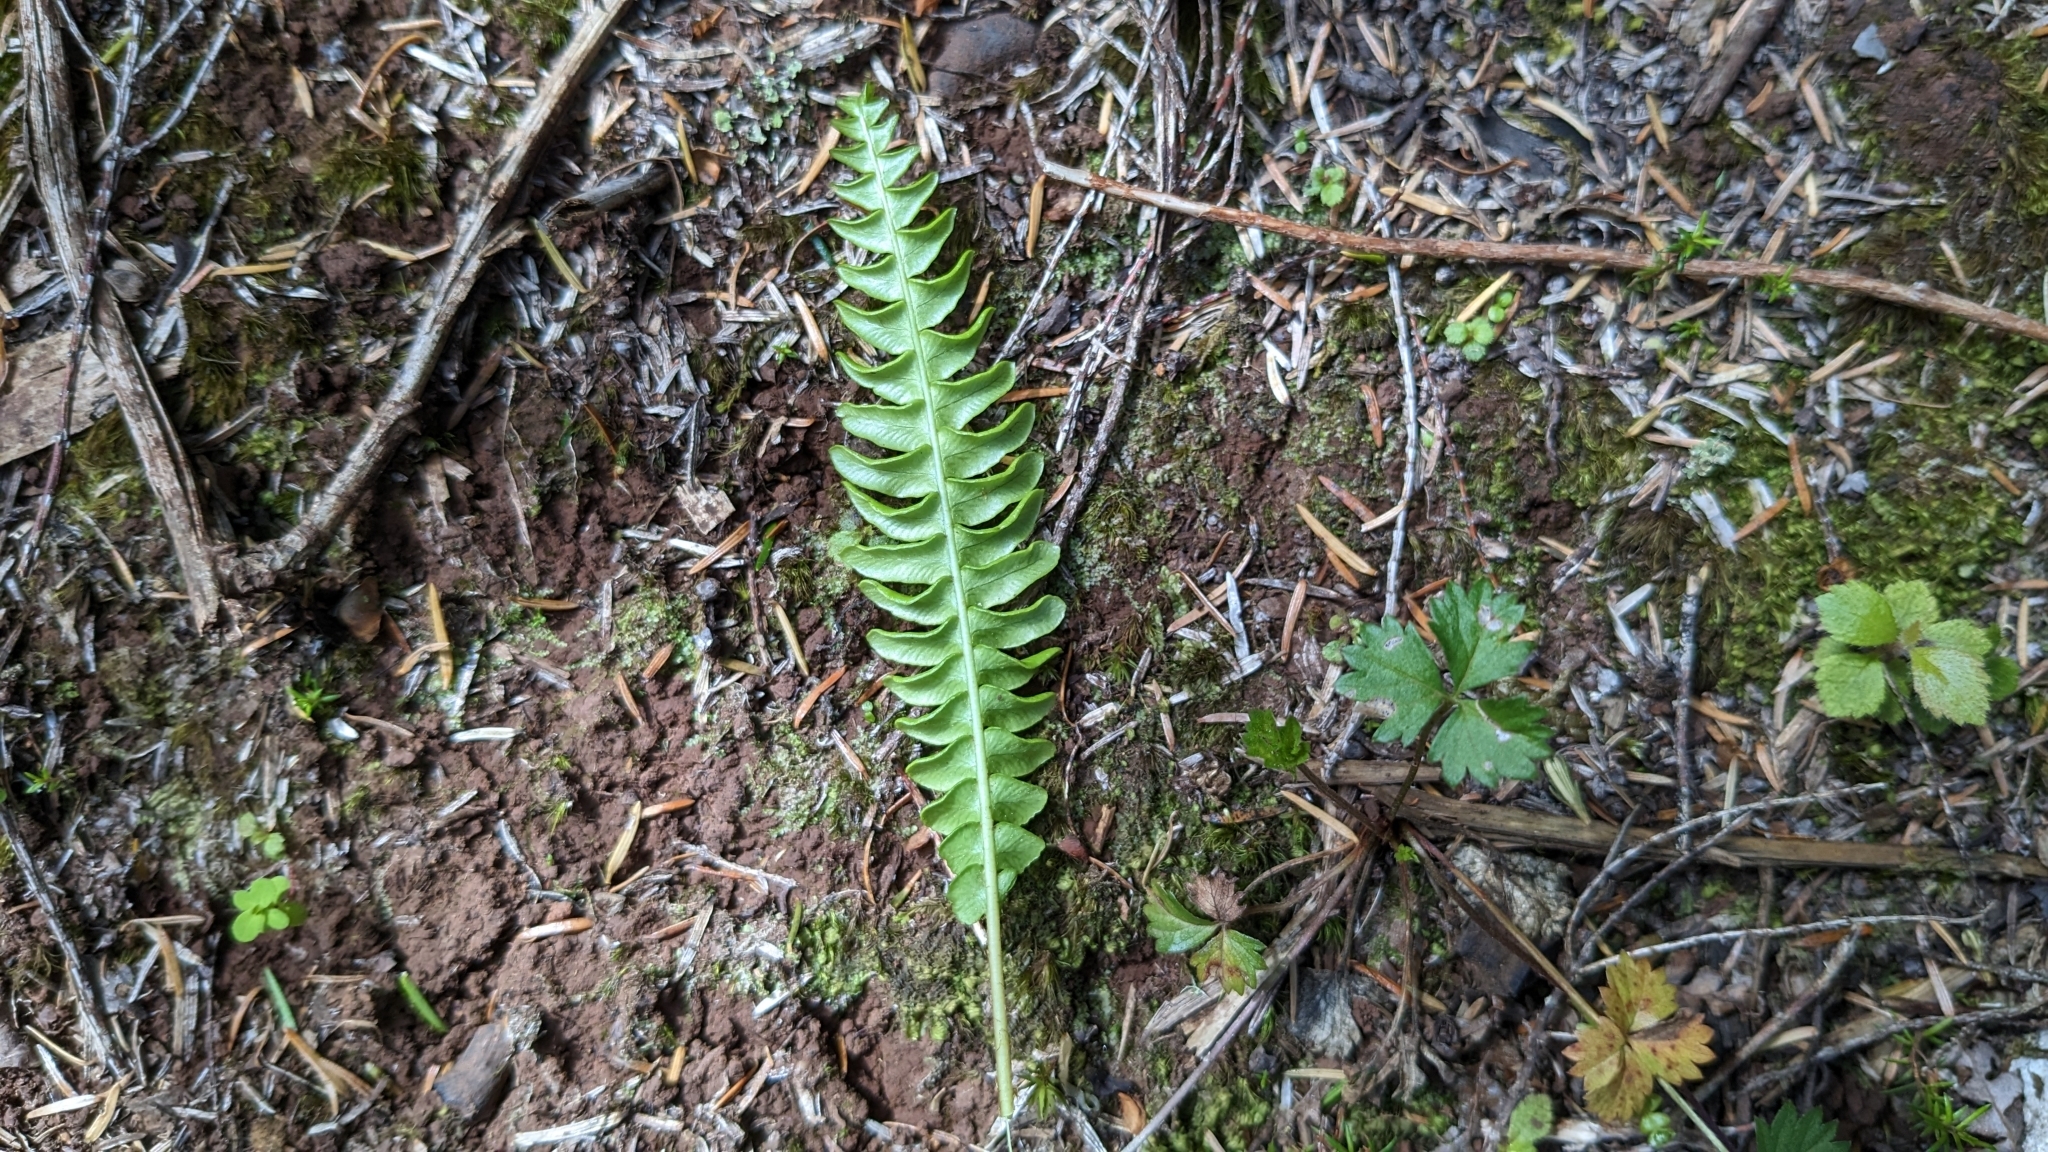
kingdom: Plantae
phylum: Tracheophyta
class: Polypodiopsida
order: Polypodiales
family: Blechnaceae
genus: Struthiopteris
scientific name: Struthiopteris spicant
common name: Deer fern
